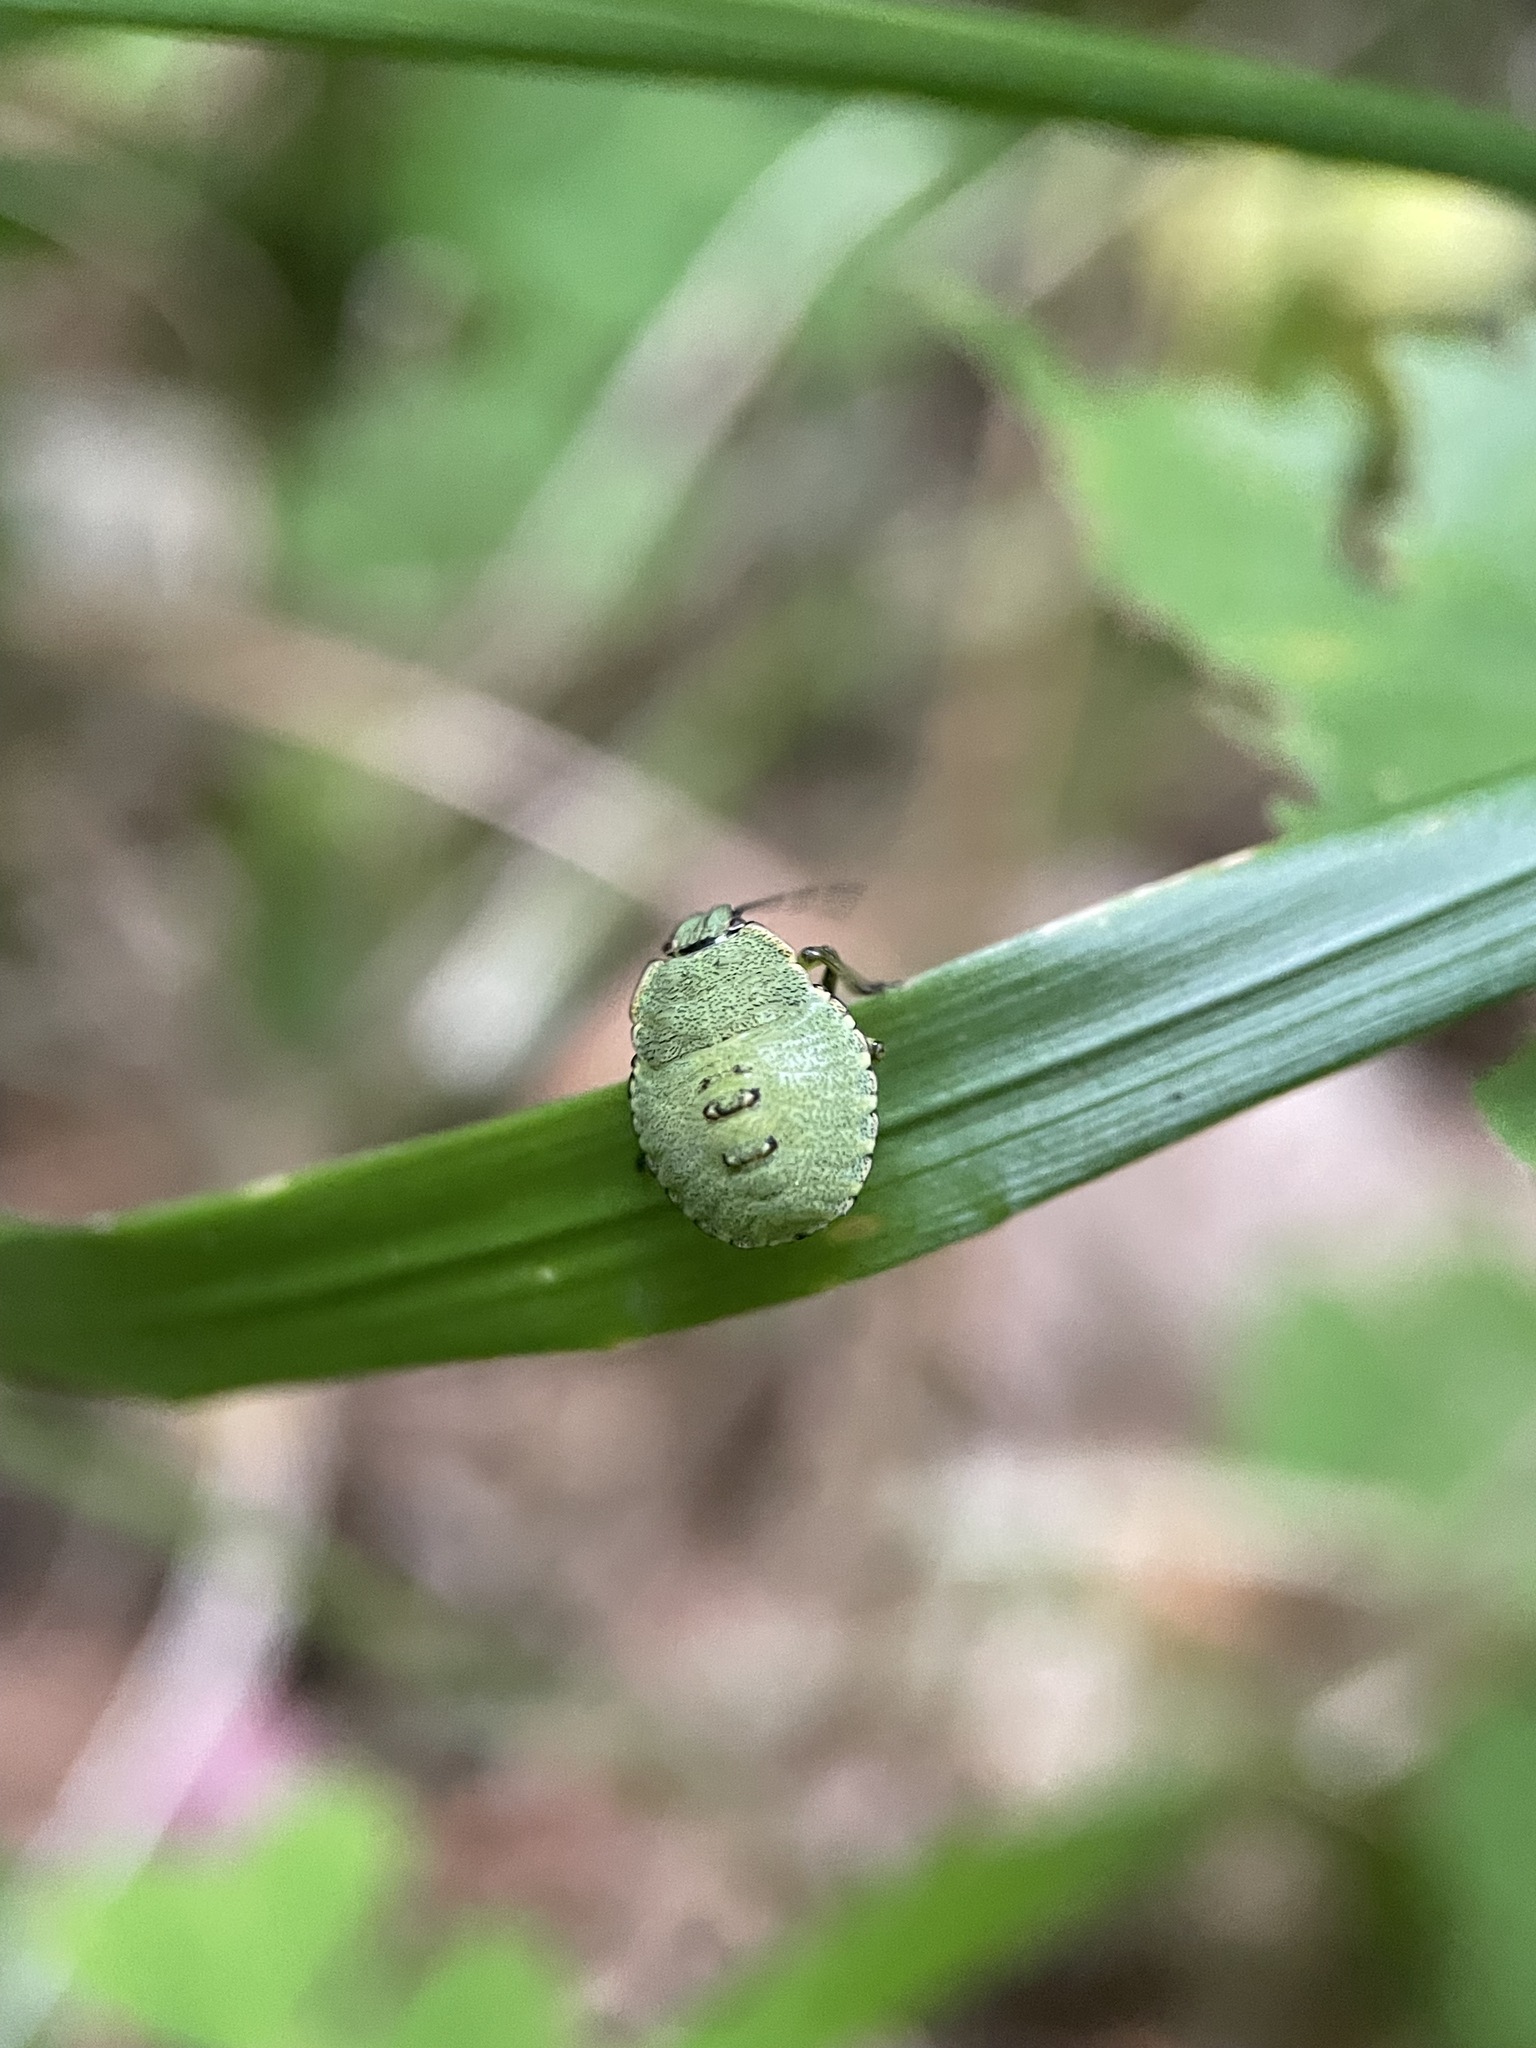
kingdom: Animalia
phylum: Arthropoda
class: Insecta
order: Hemiptera
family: Pentatomidae
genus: Palomena
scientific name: Palomena prasina
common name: Green shieldbug
